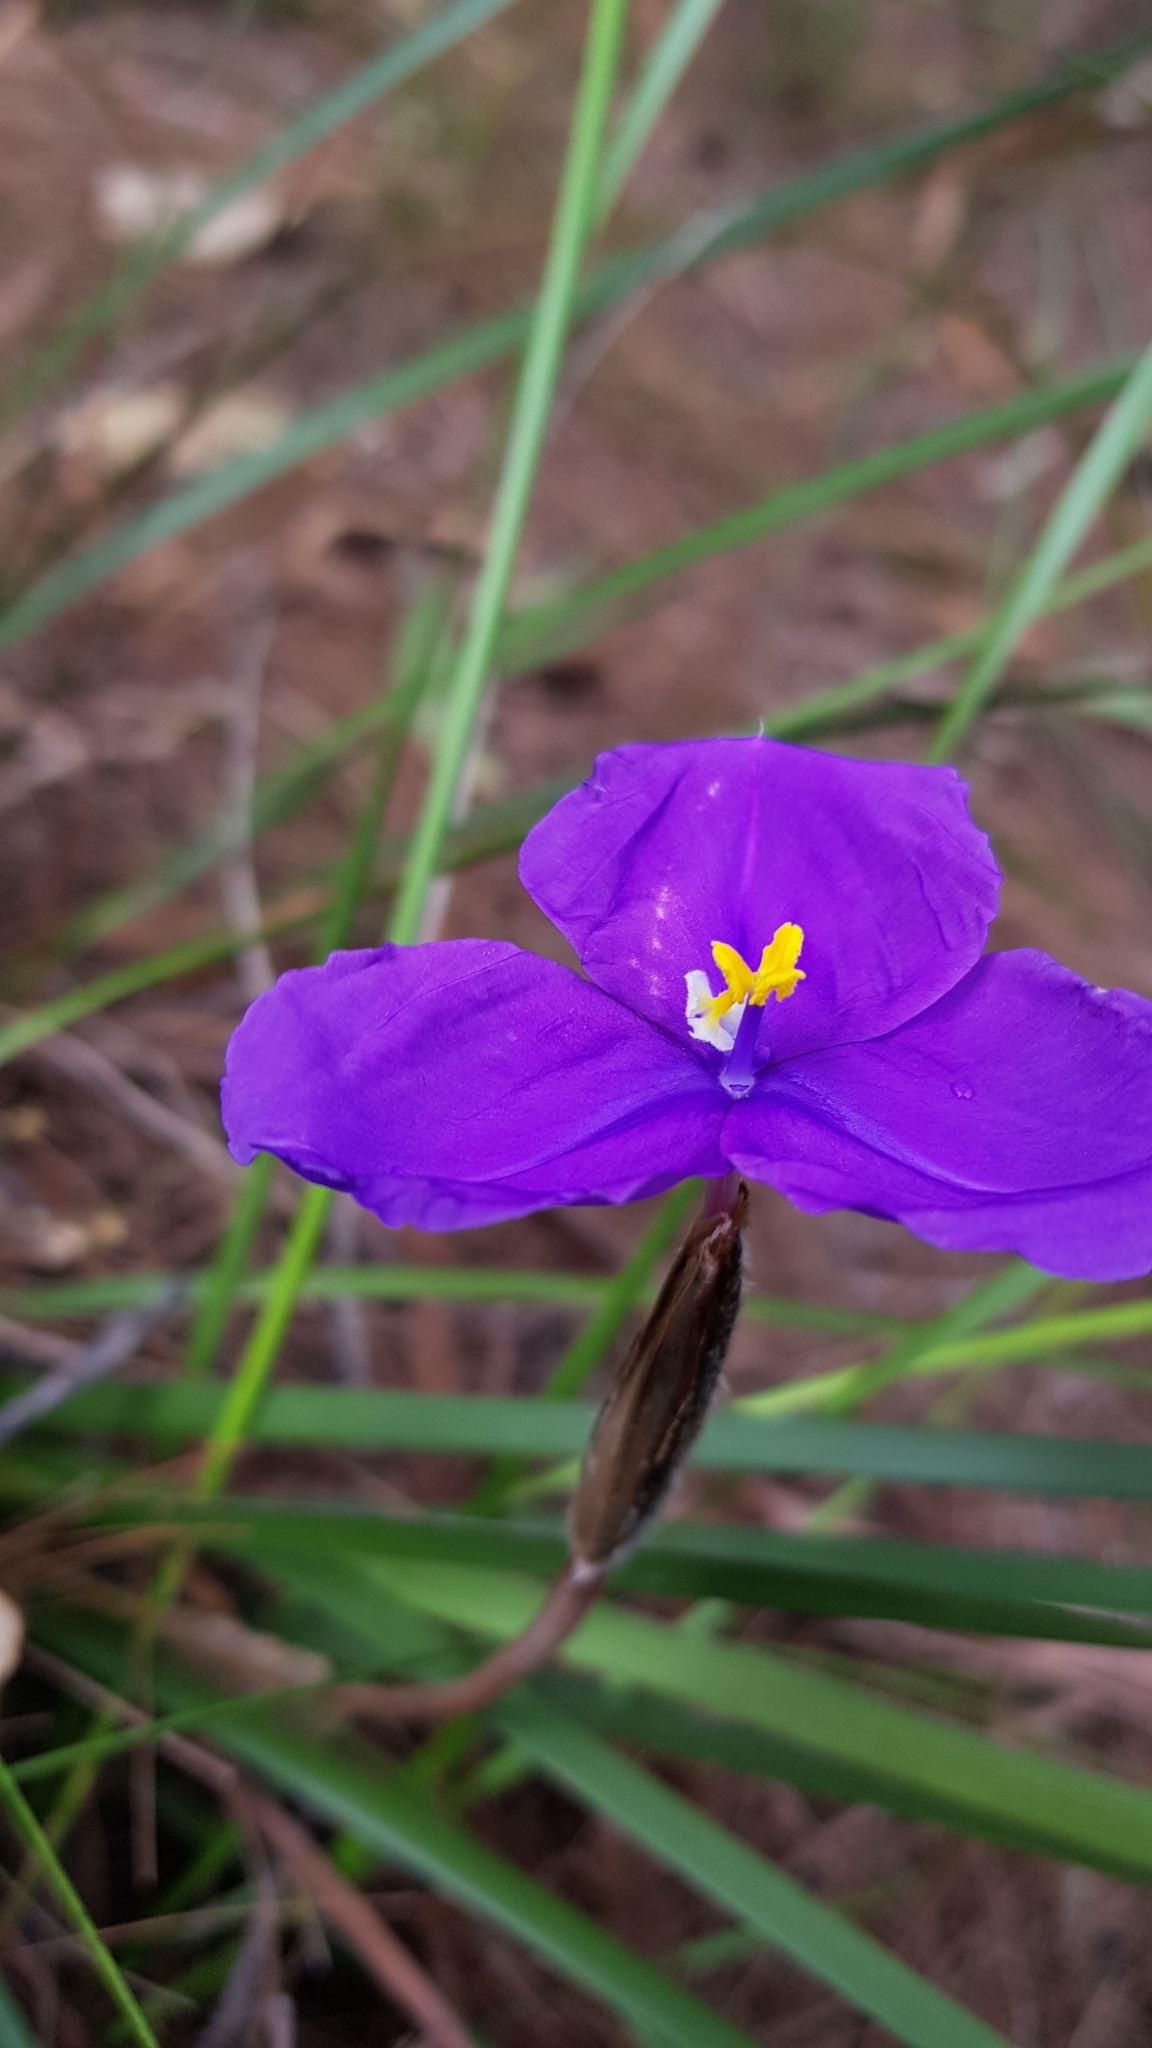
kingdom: Plantae
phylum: Tracheophyta
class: Liliopsida
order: Asparagales
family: Iridaceae
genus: Patersonia
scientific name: Patersonia sericea
